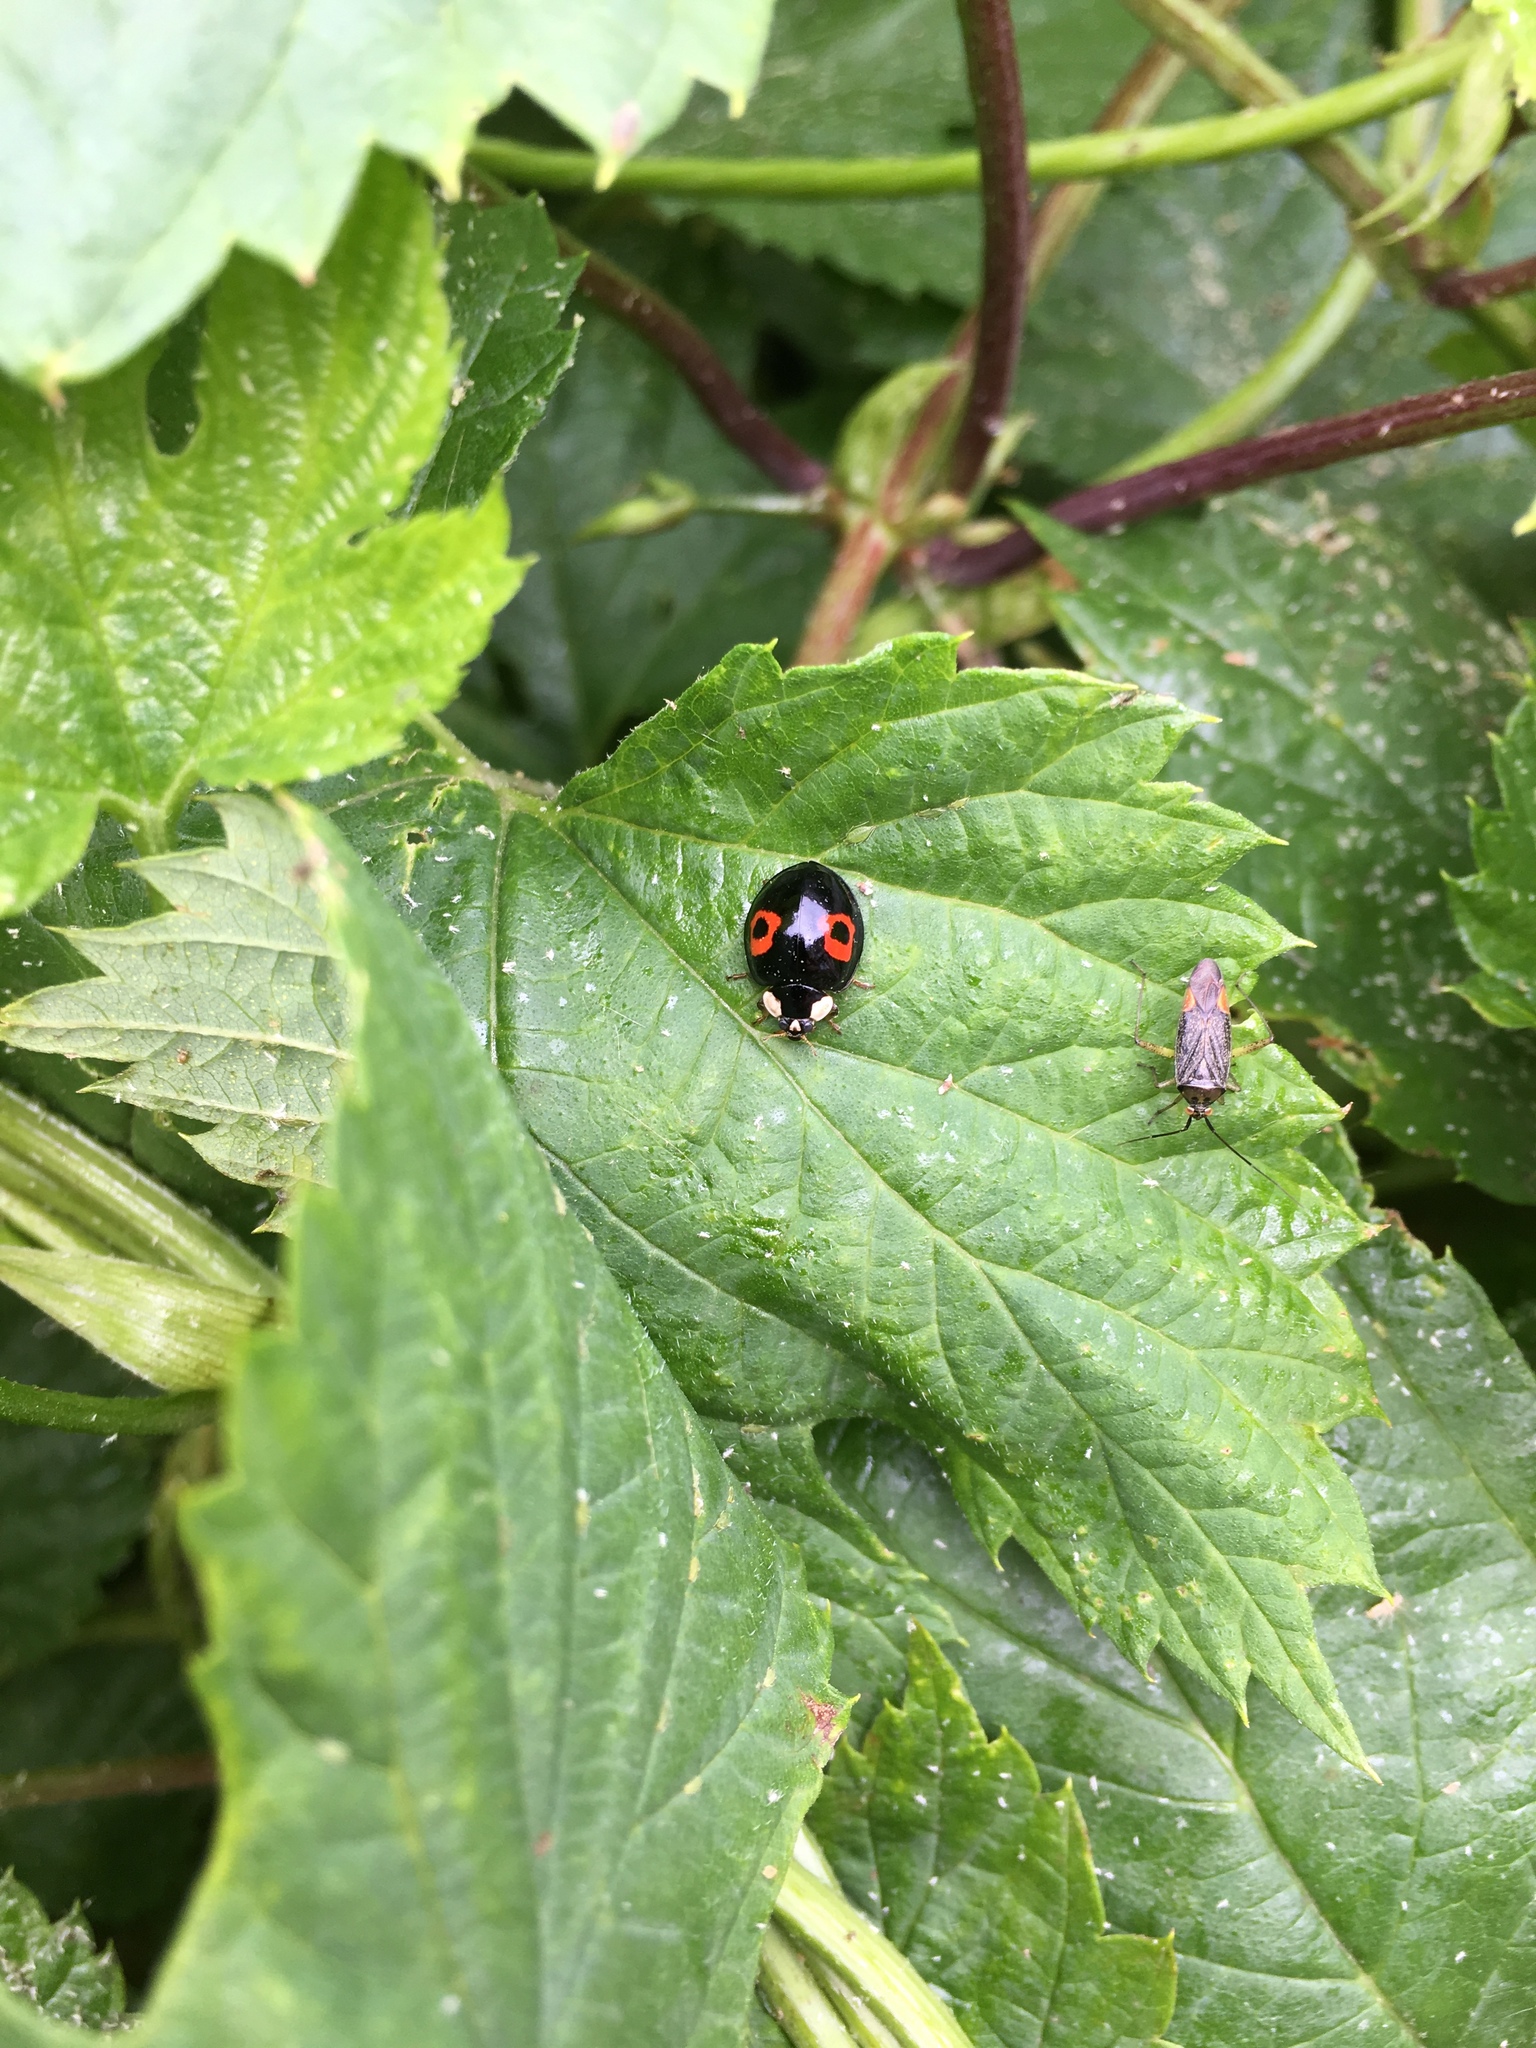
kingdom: Animalia
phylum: Arthropoda
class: Insecta
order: Coleoptera
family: Coccinellidae
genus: Harmonia
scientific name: Harmonia axyridis
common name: Harlequin ladybird
